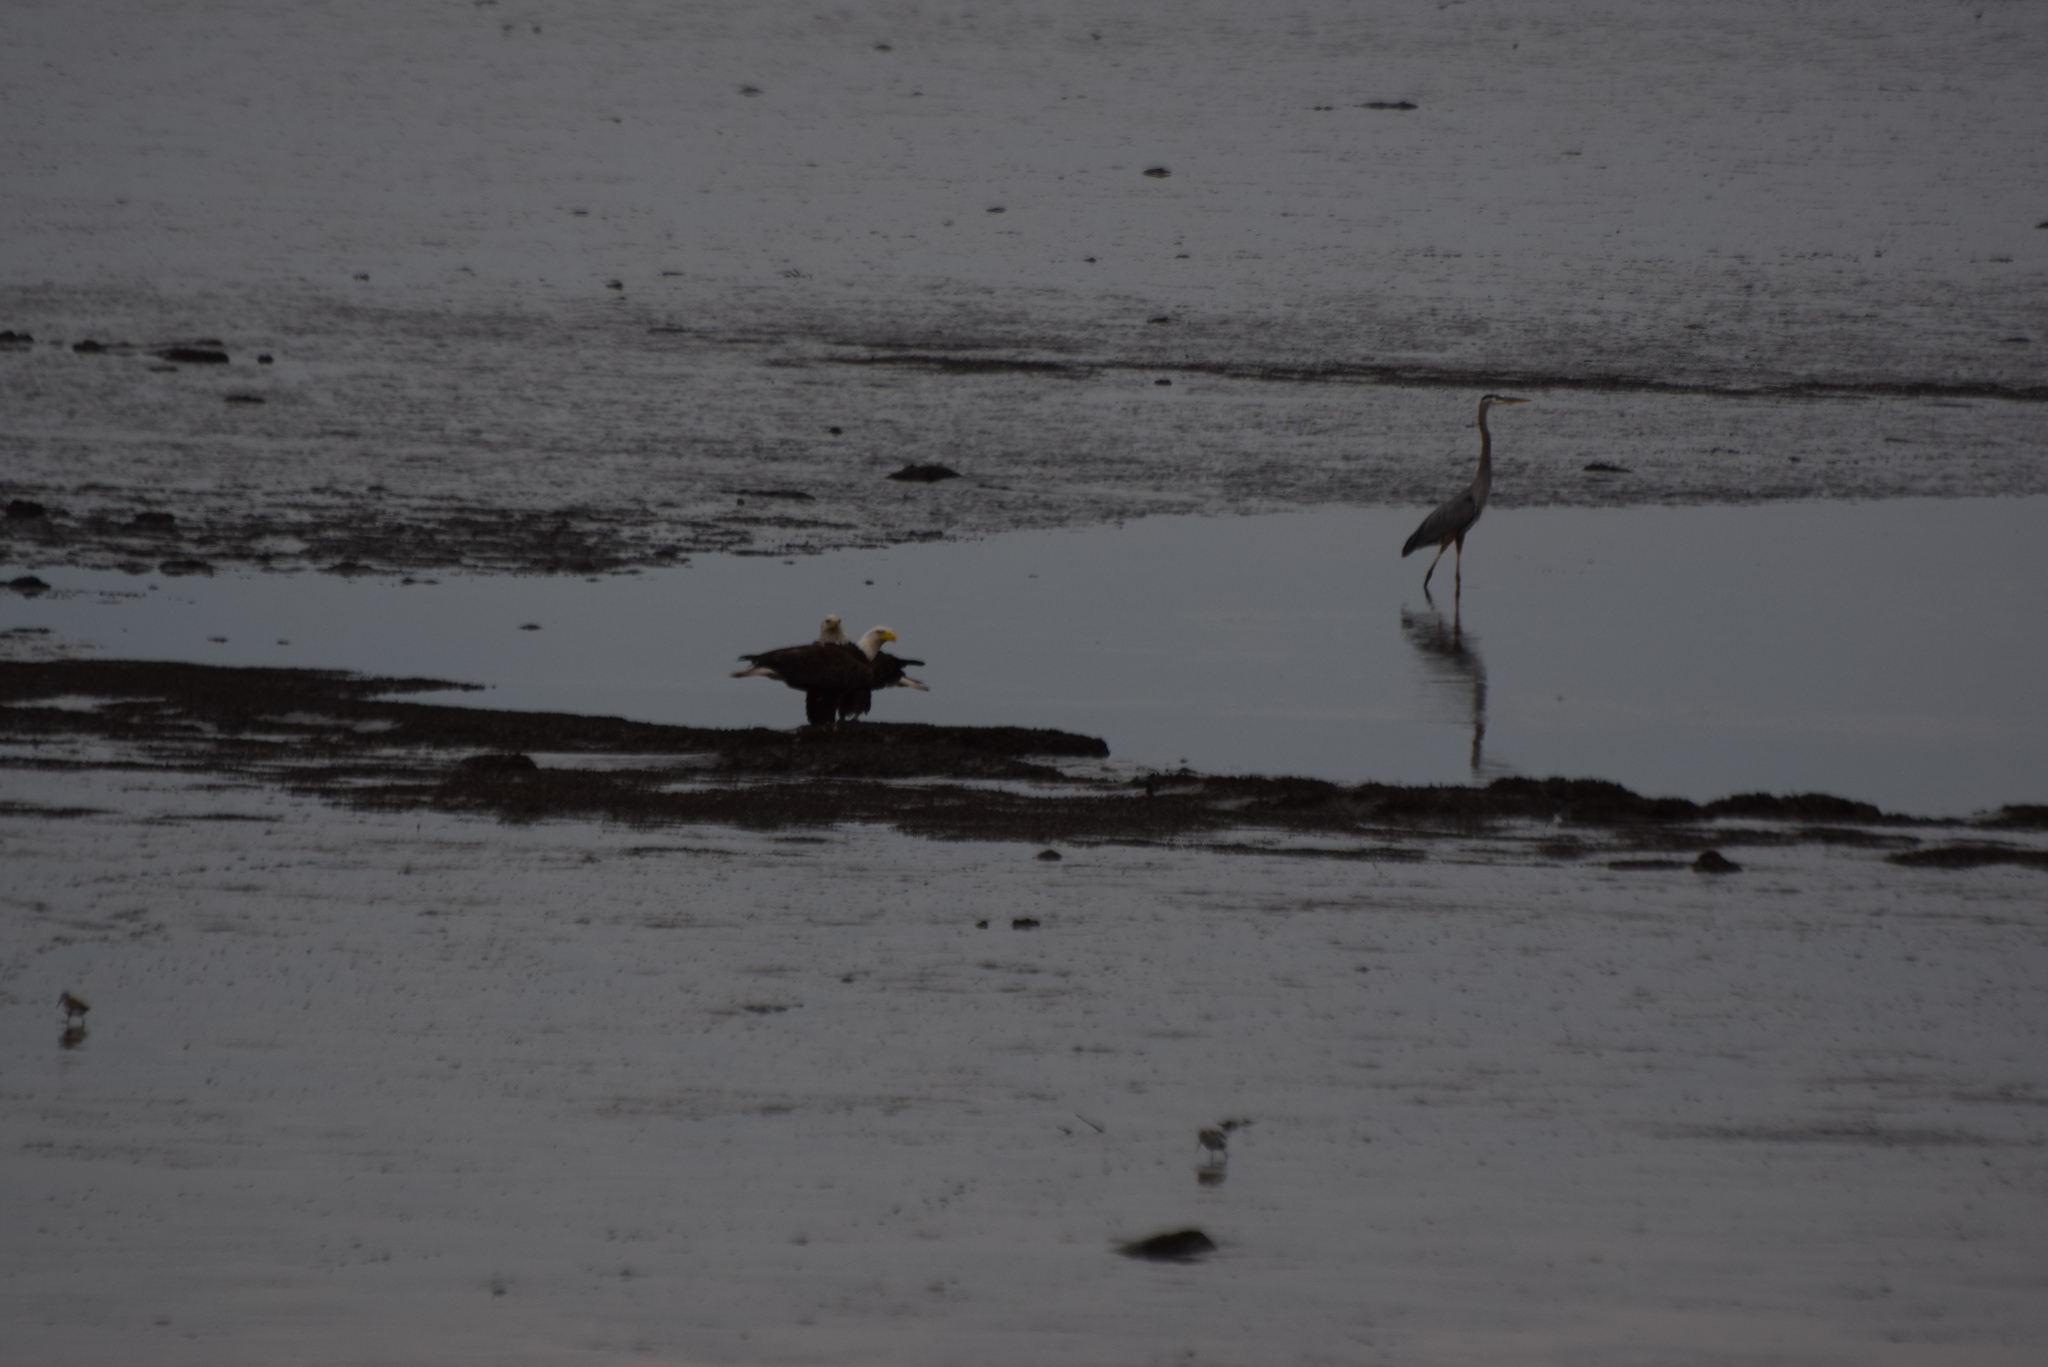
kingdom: Animalia
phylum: Chordata
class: Aves
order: Pelecaniformes
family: Ardeidae
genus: Ardea
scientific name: Ardea herodias
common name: Great blue heron
